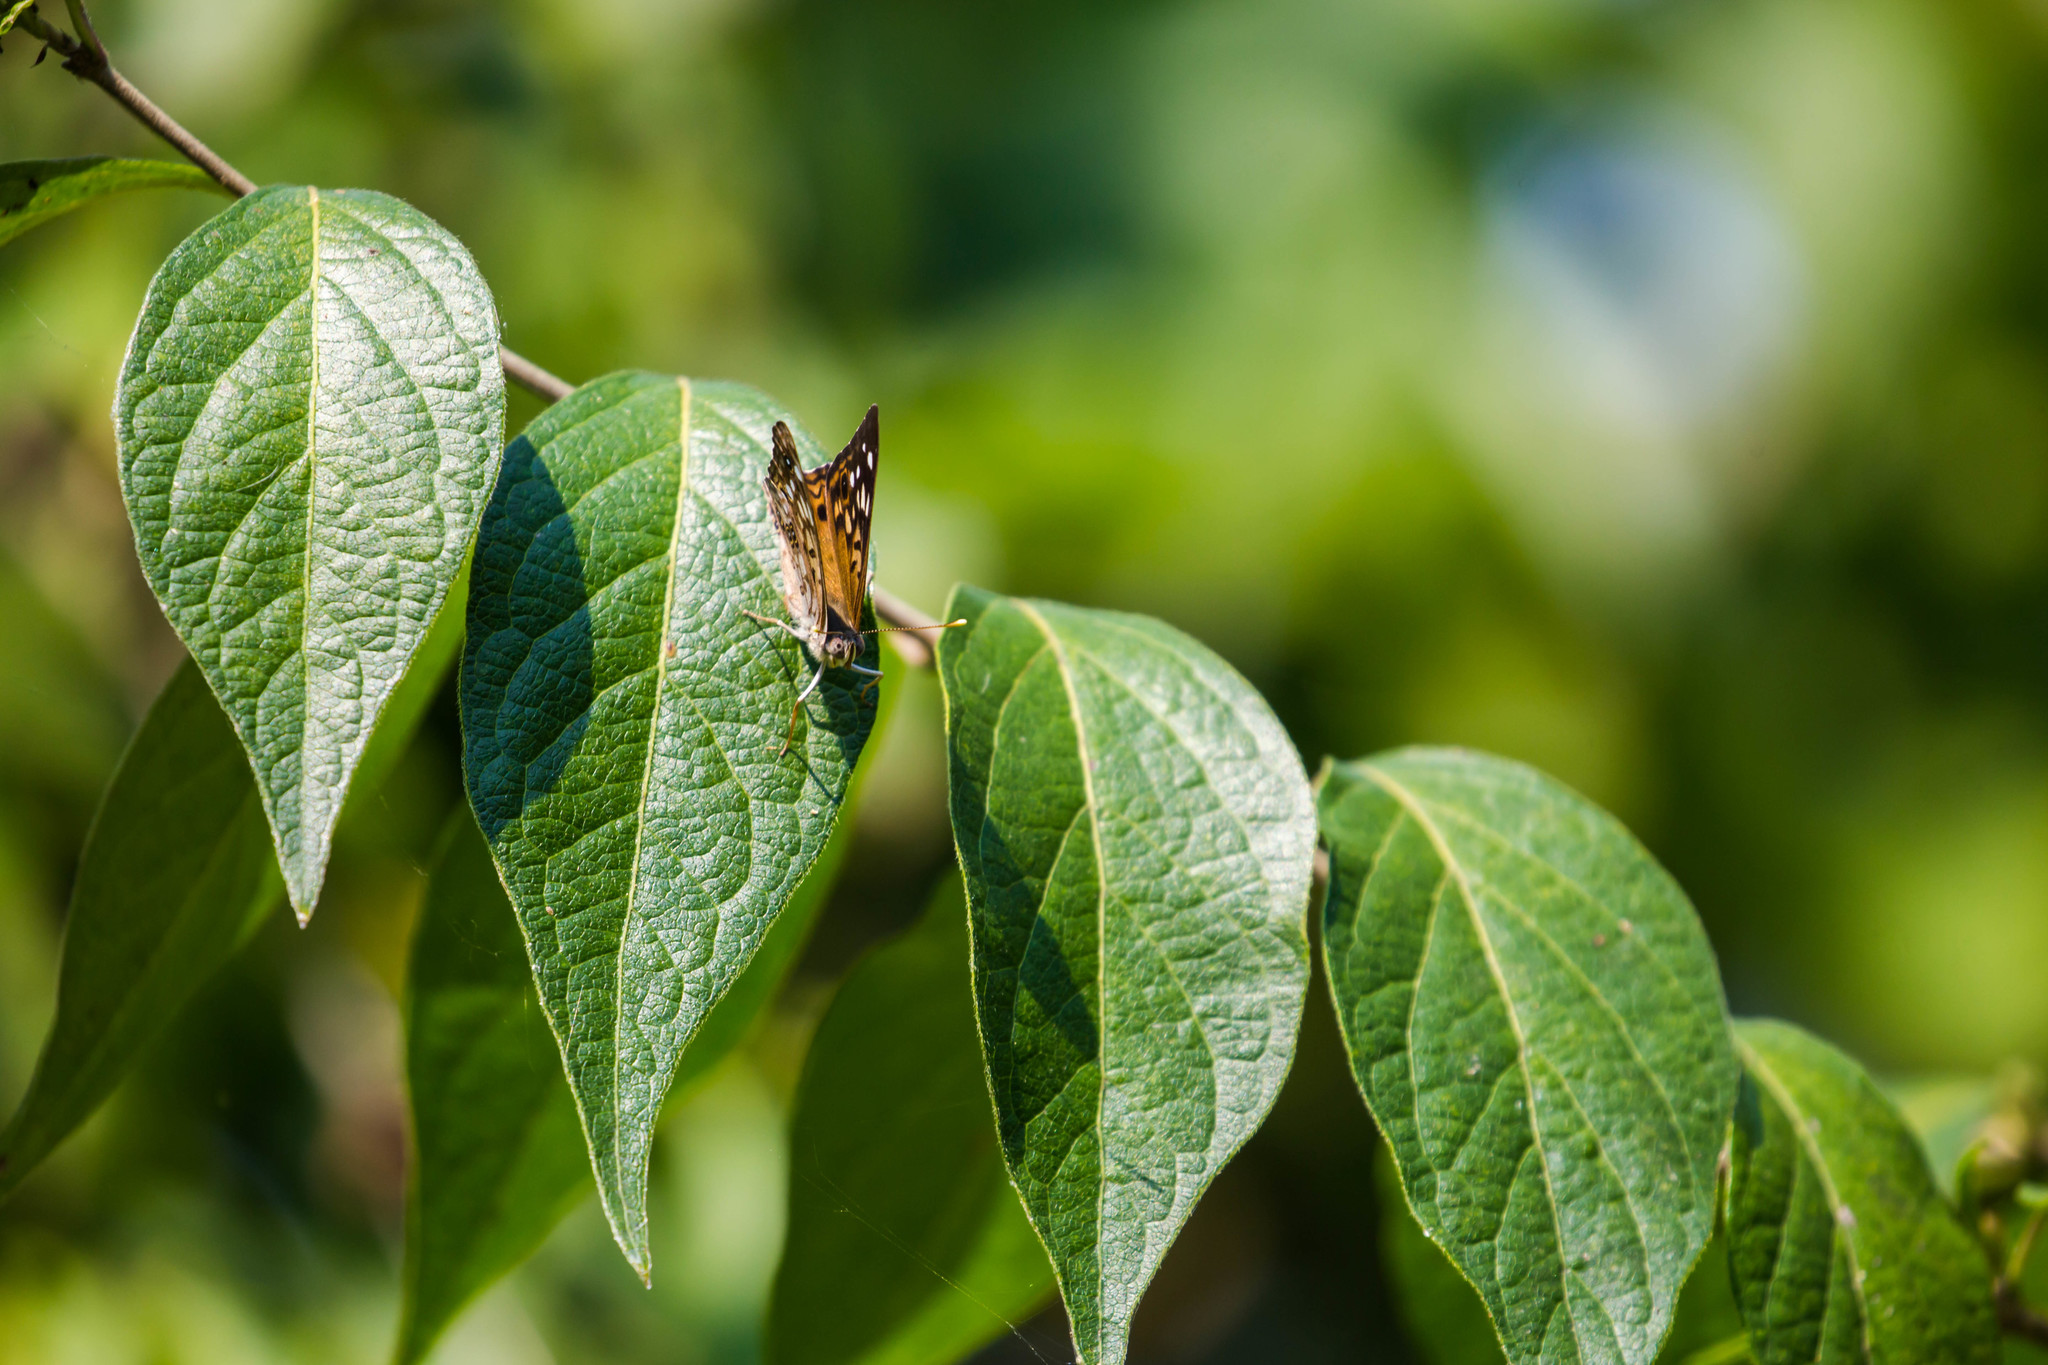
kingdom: Animalia
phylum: Arthropoda
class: Insecta
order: Lepidoptera
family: Nymphalidae
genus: Asterocampa
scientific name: Asterocampa celtis
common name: Hackberry emperor
